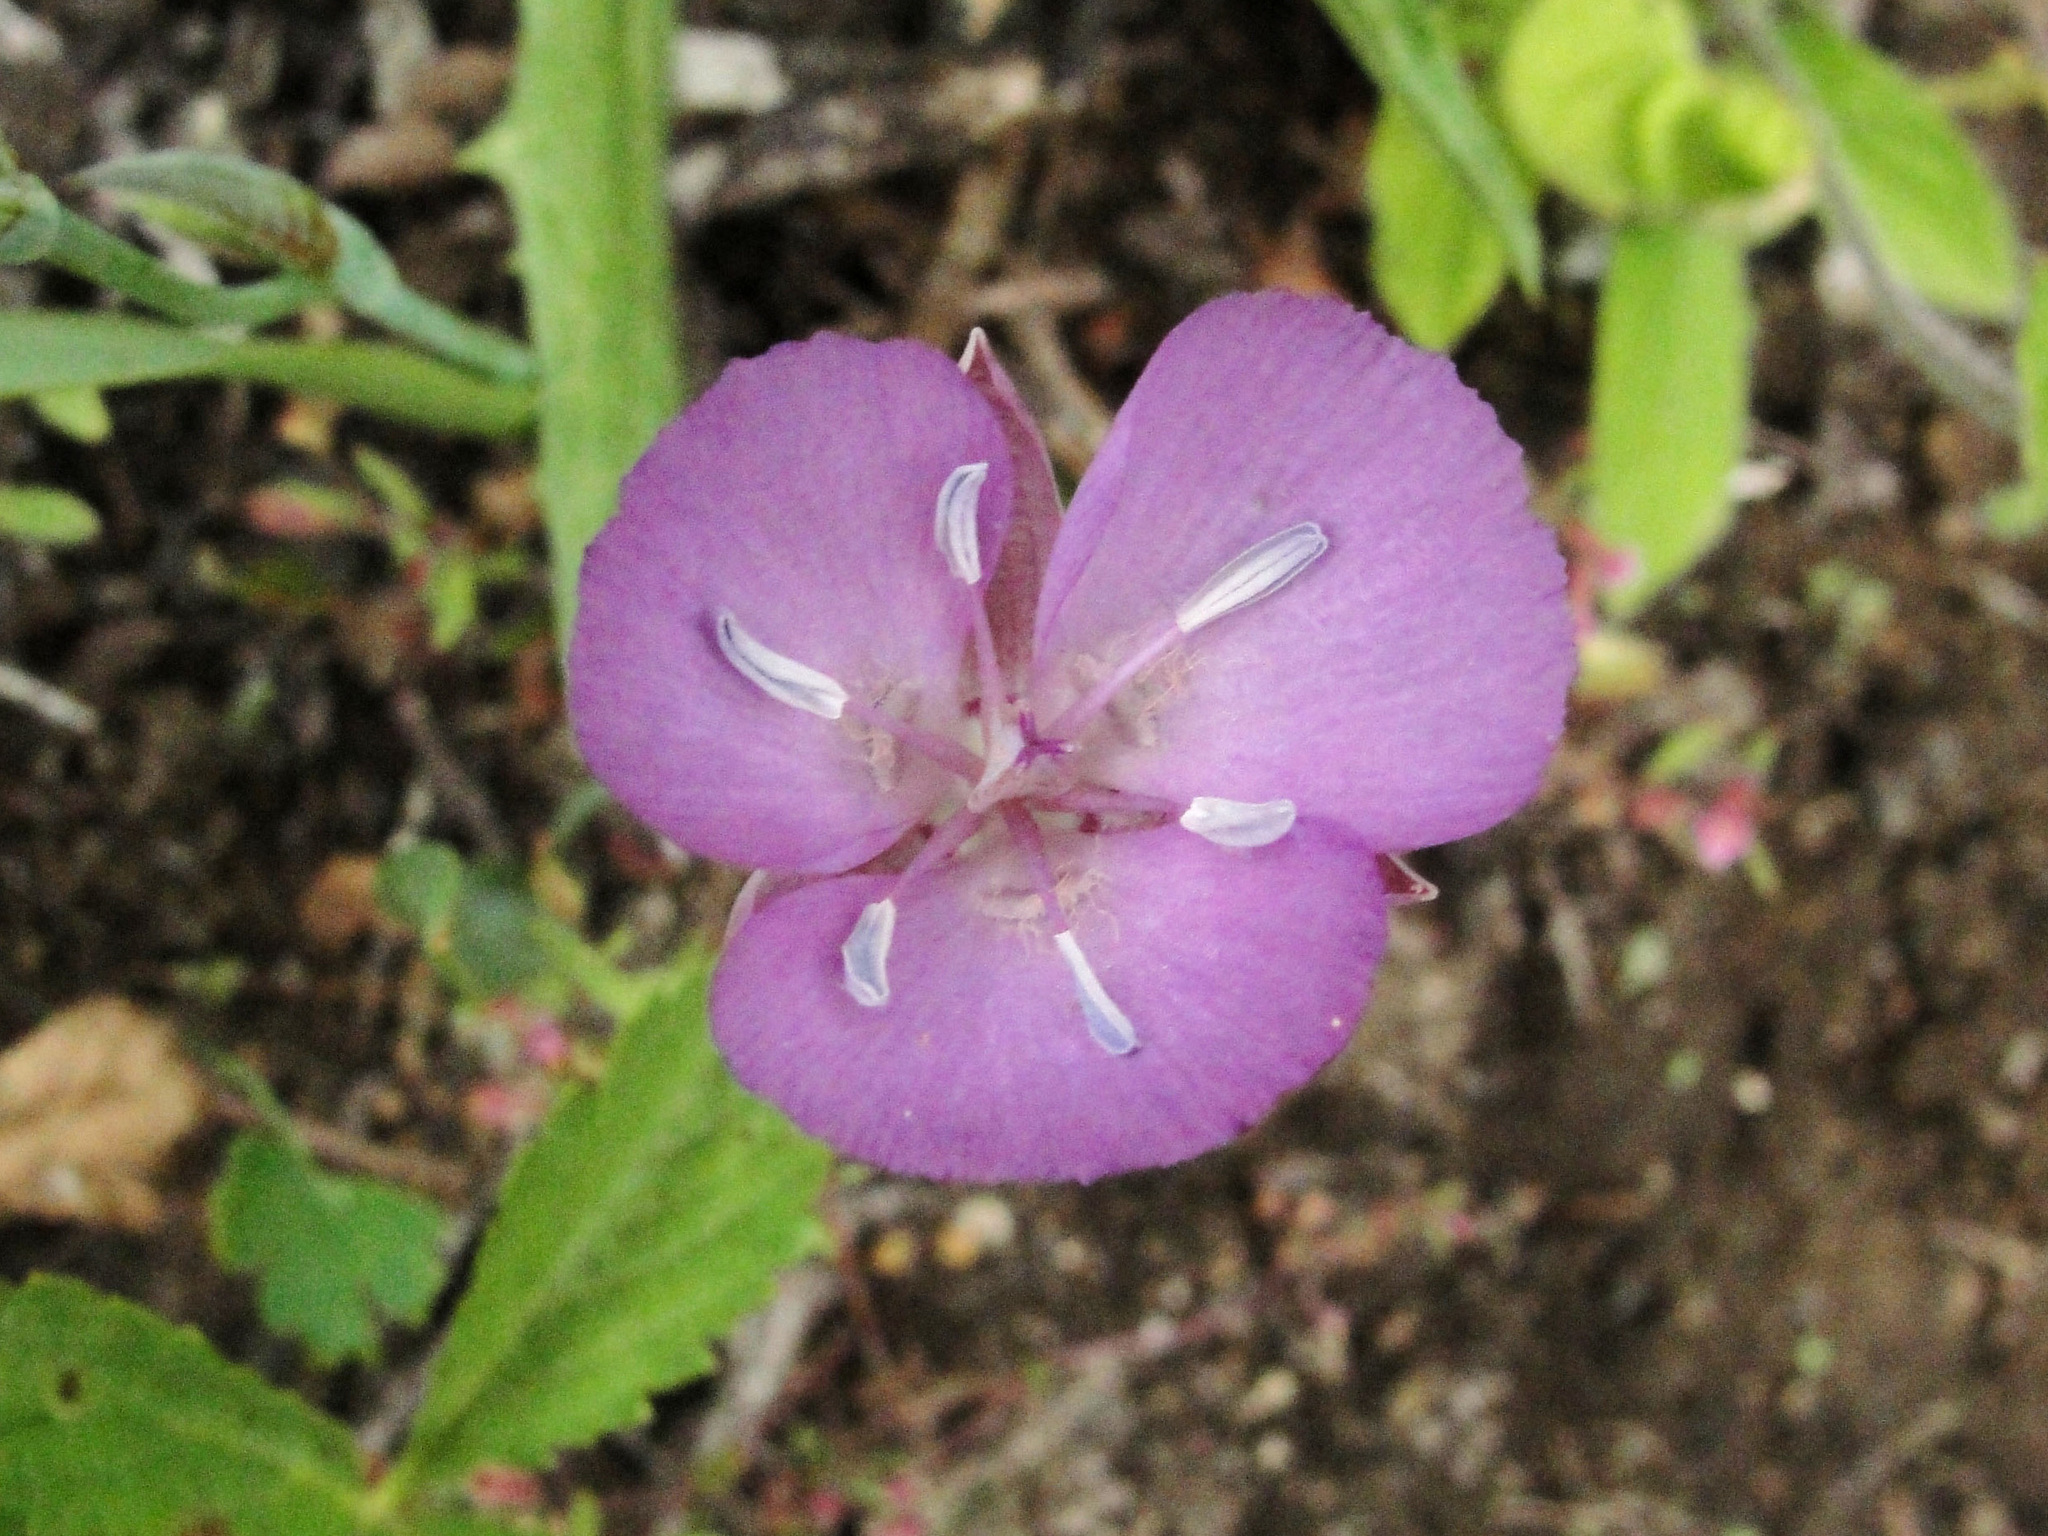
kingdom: Plantae
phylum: Tracheophyta
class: Liliopsida
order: Liliales
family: Liliaceae
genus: Calochortus
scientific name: Calochortus nudus
